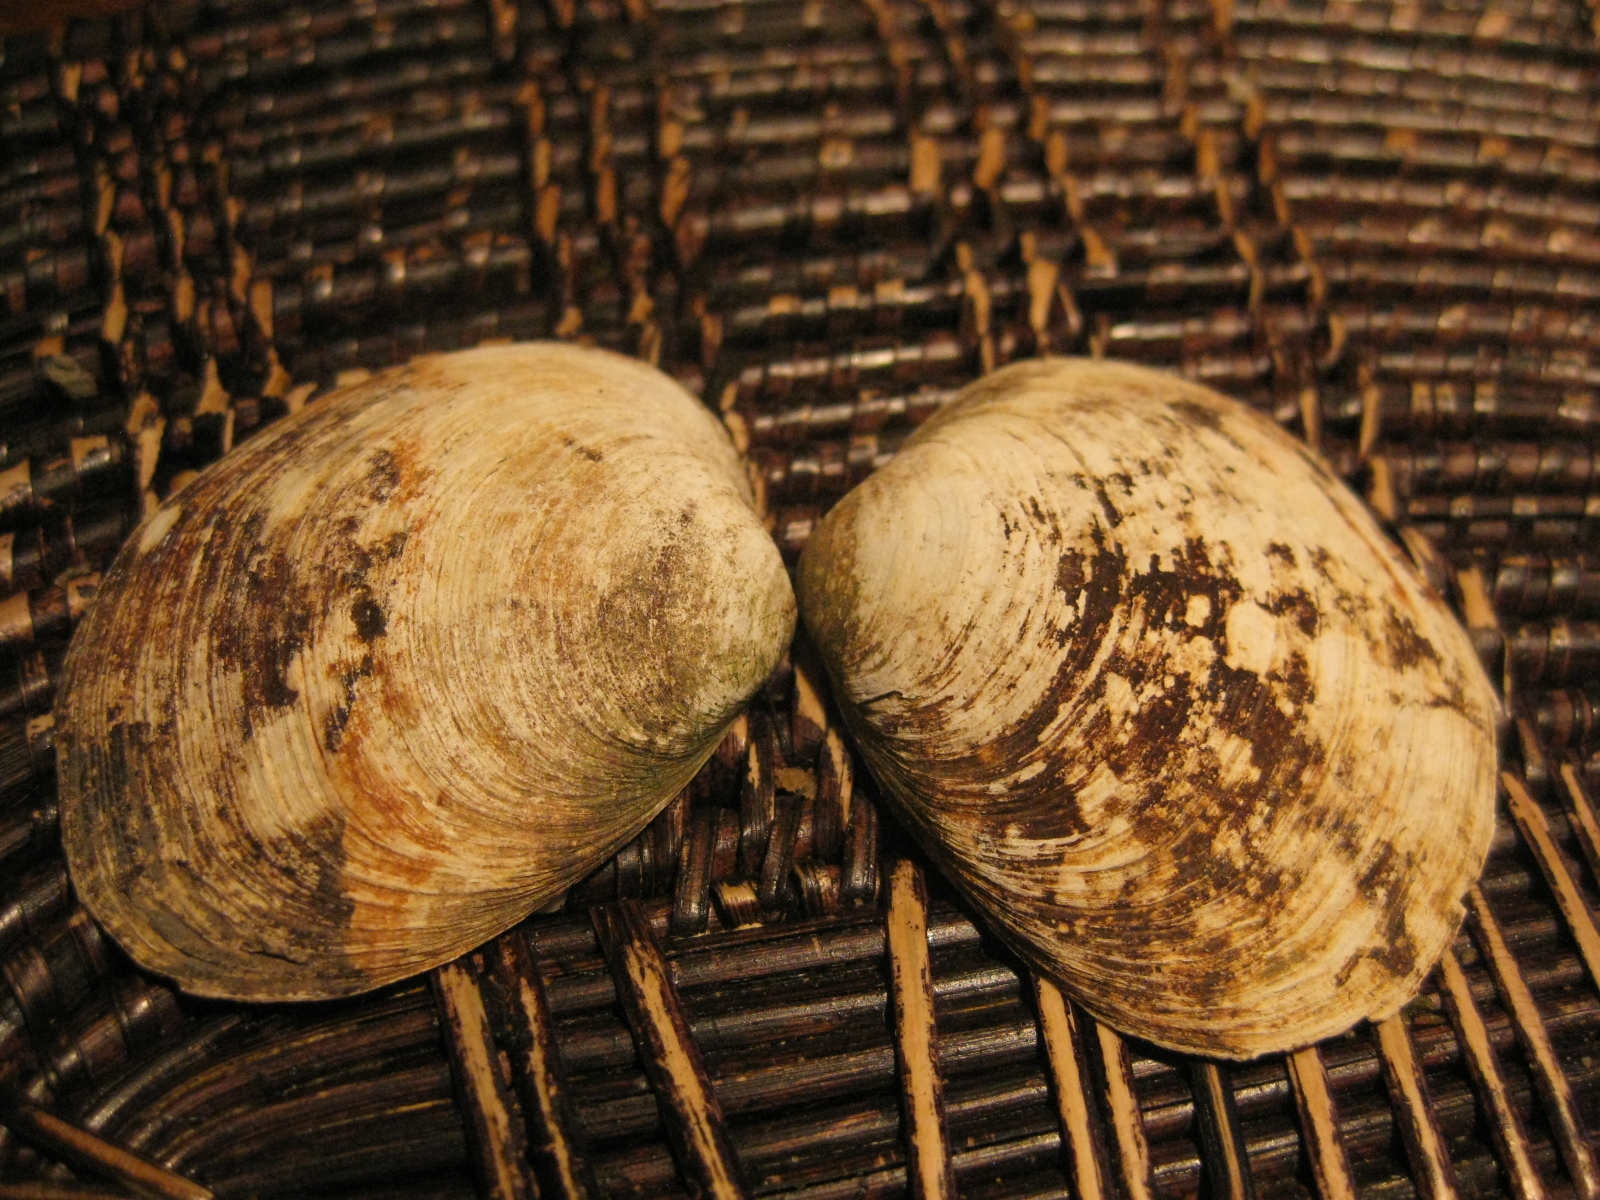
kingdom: Animalia
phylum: Mollusca
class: Bivalvia
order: Venerida
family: Mactridae
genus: Cyclomactra
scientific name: Cyclomactra ovata
